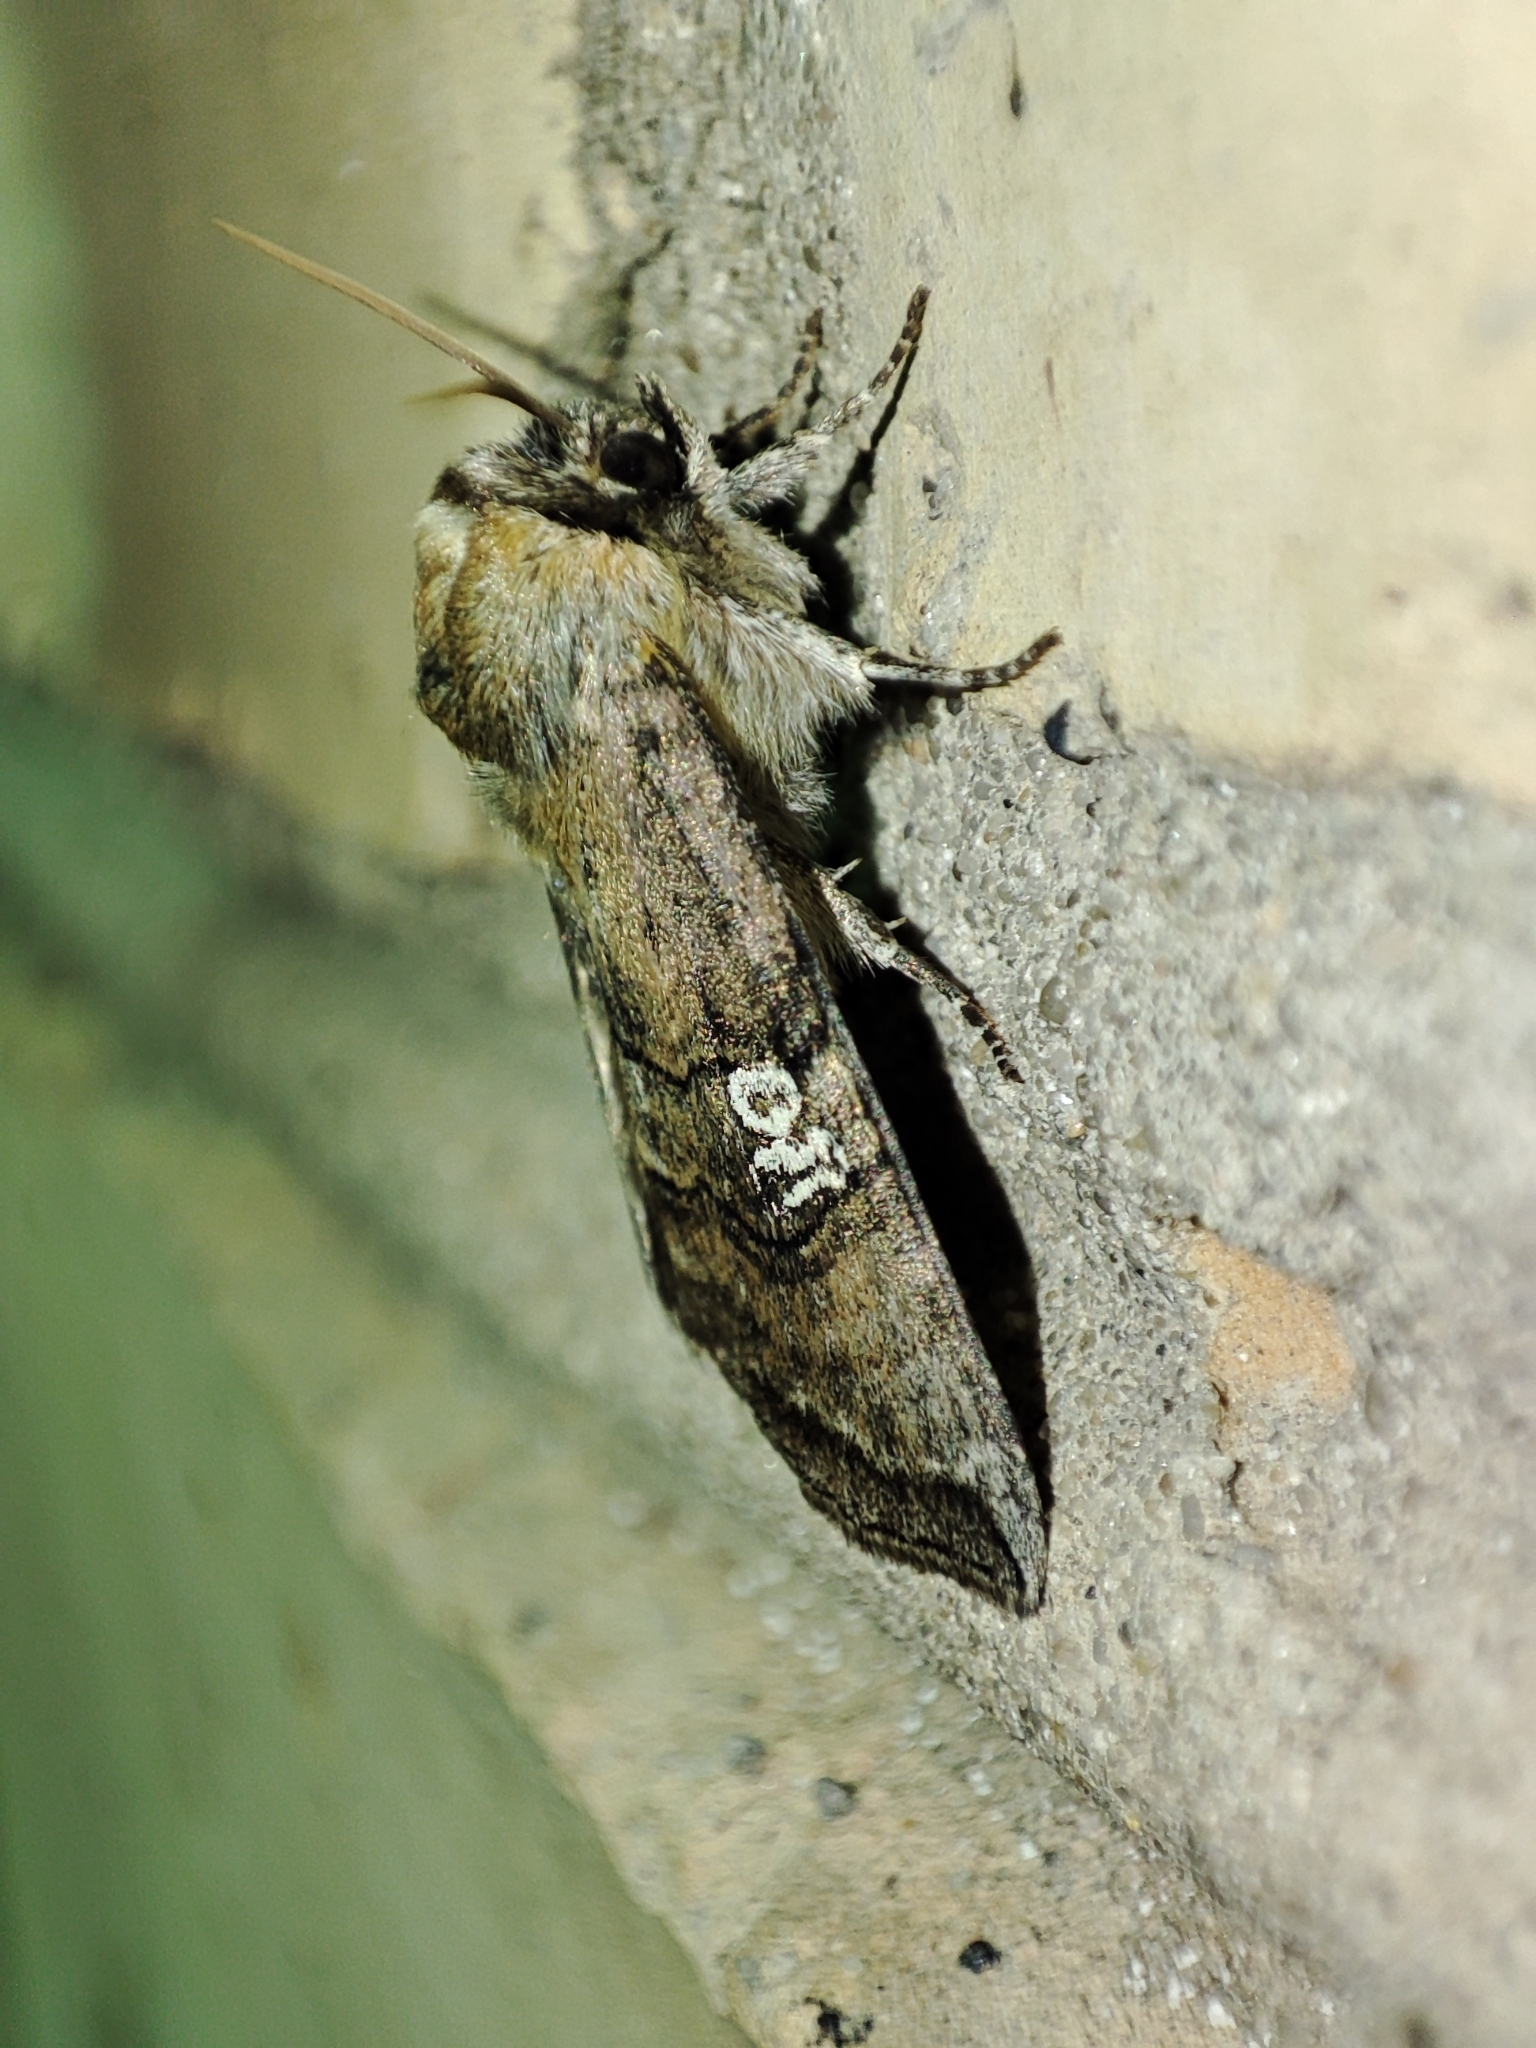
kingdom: Animalia
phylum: Arthropoda
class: Insecta
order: Lepidoptera
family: Drepanidae
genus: Tethea
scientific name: Tethea ocularis
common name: Figure of eighty
